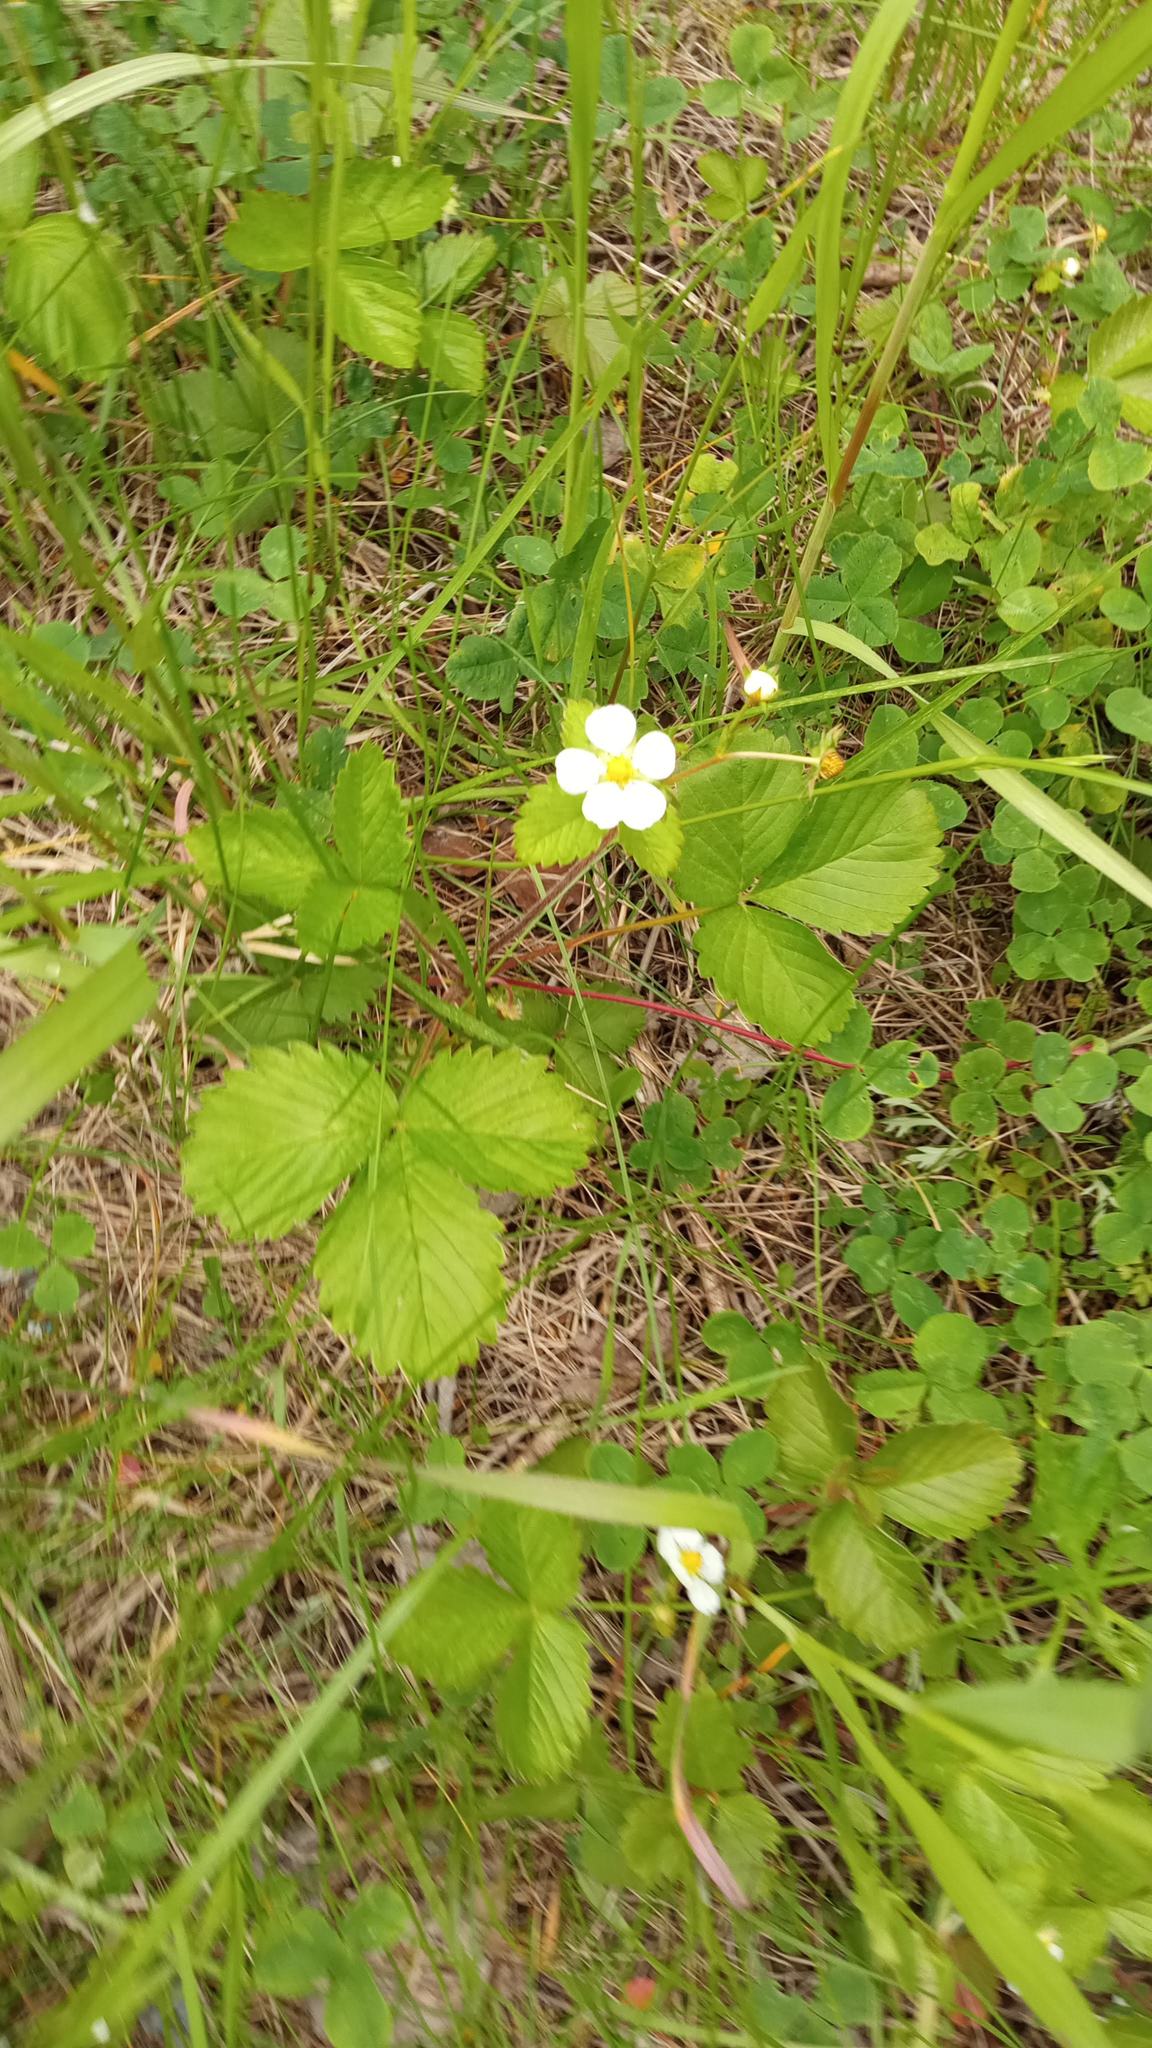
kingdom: Plantae
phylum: Tracheophyta
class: Magnoliopsida
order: Rosales
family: Rosaceae
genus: Fragaria
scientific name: Fragaria vesca
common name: Wild strawberry
